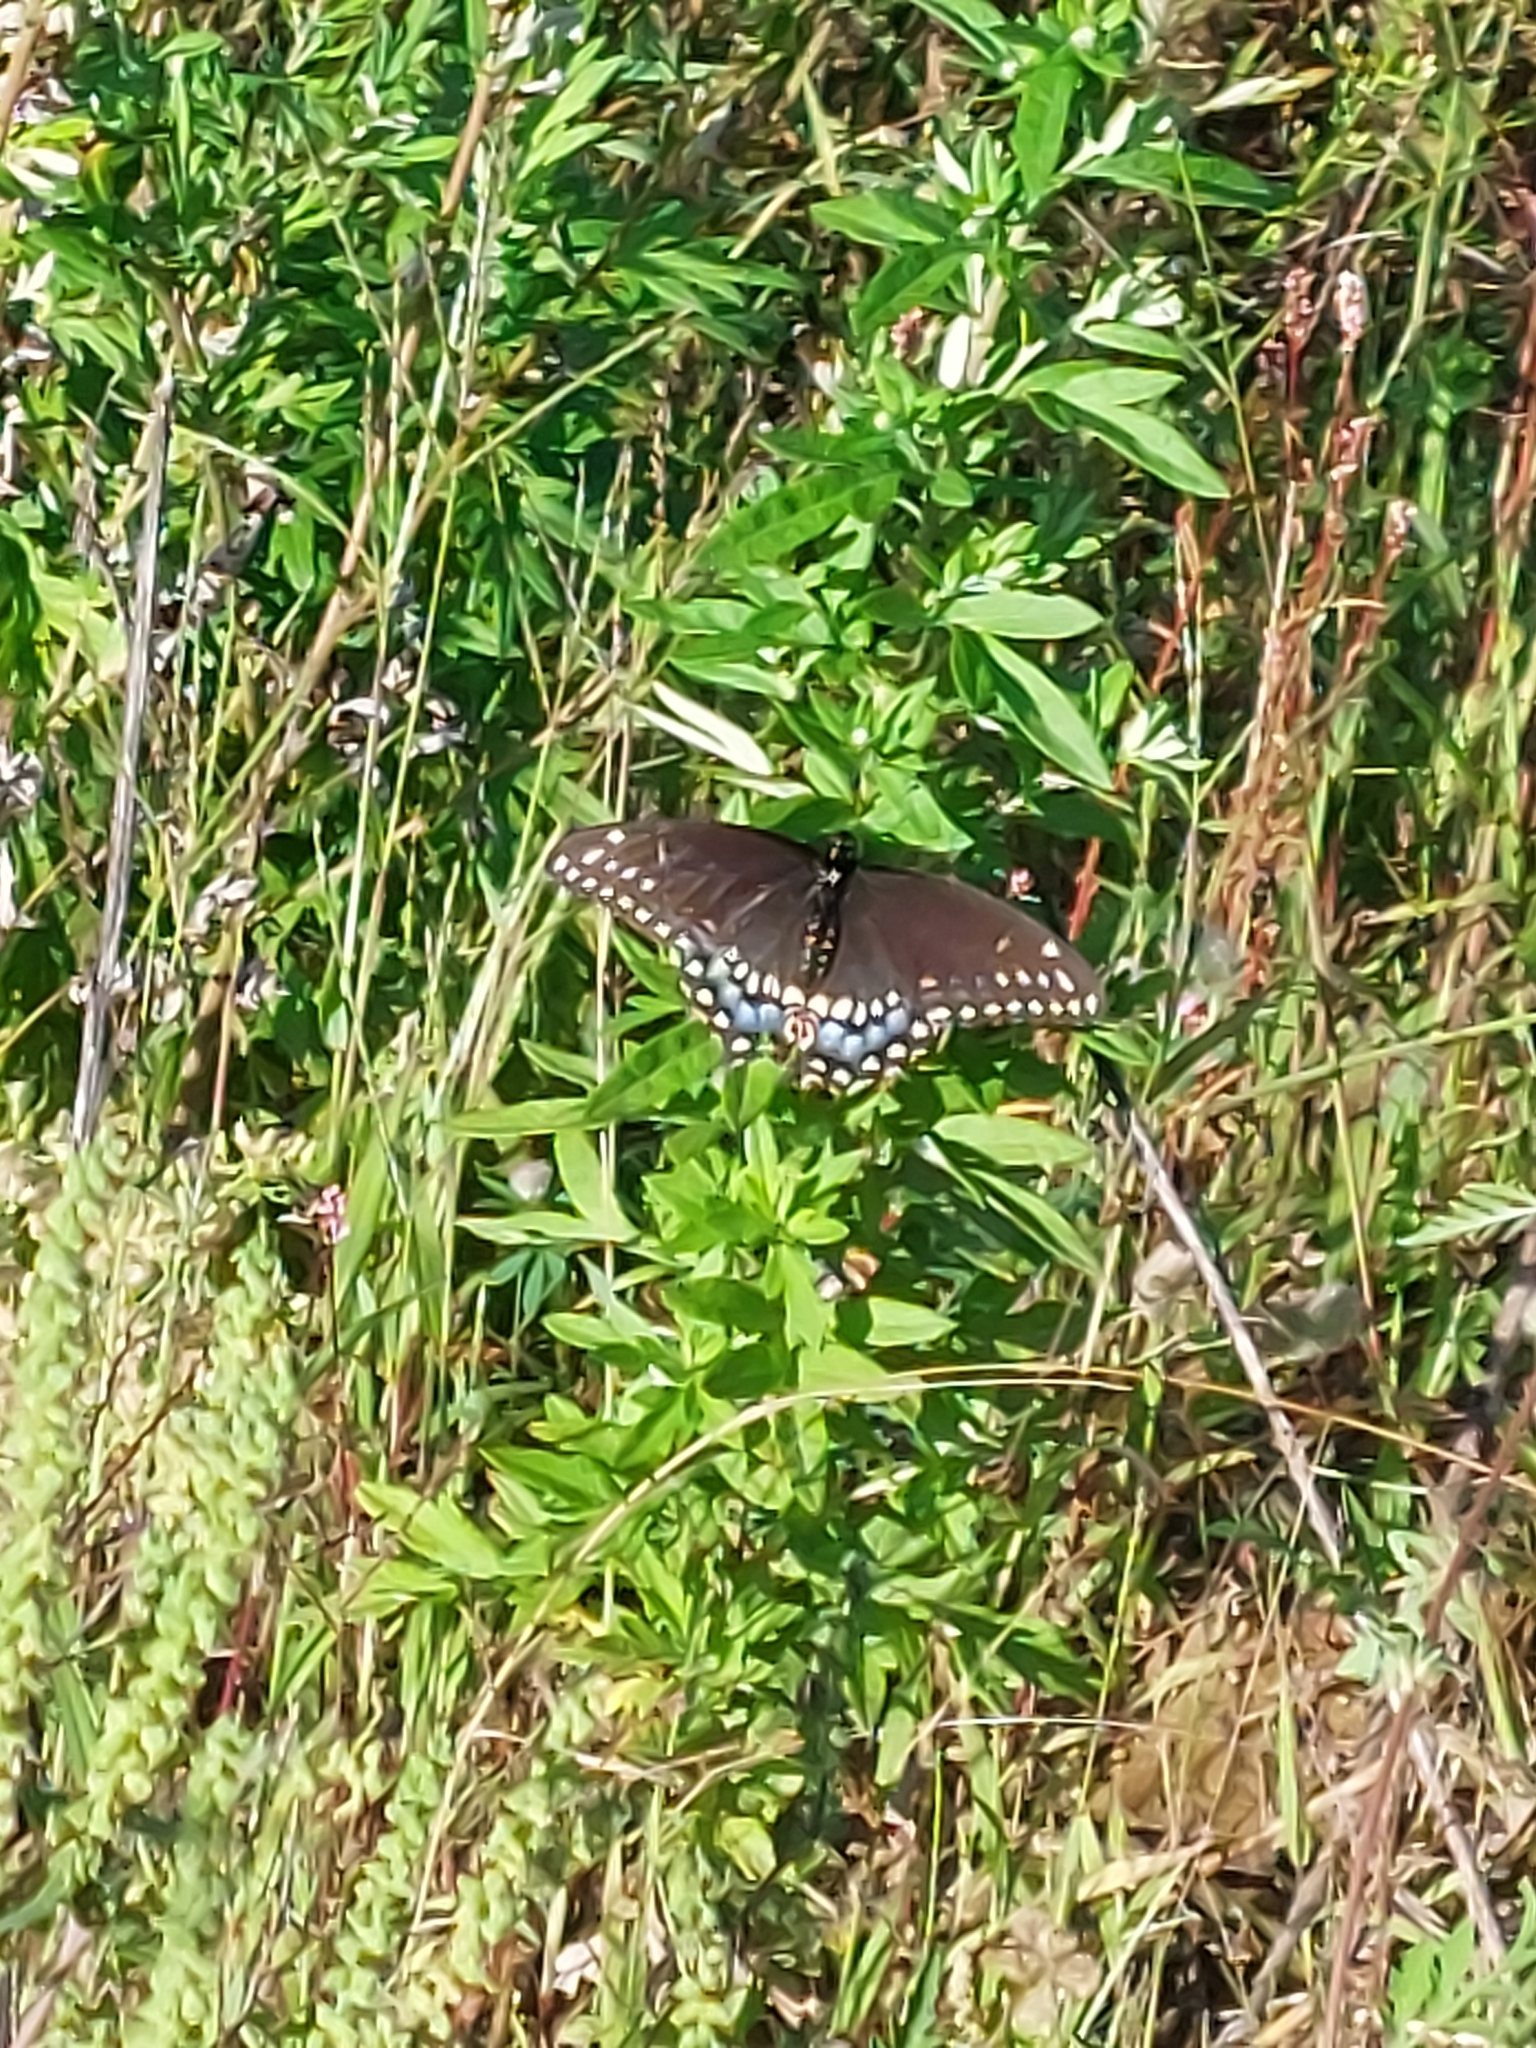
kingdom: Animalia
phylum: Arthropoda
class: Insecta
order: Lepidoptera
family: Papilionidae
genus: Papilio
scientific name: Papilio polyxenes
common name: Black swallowtail
